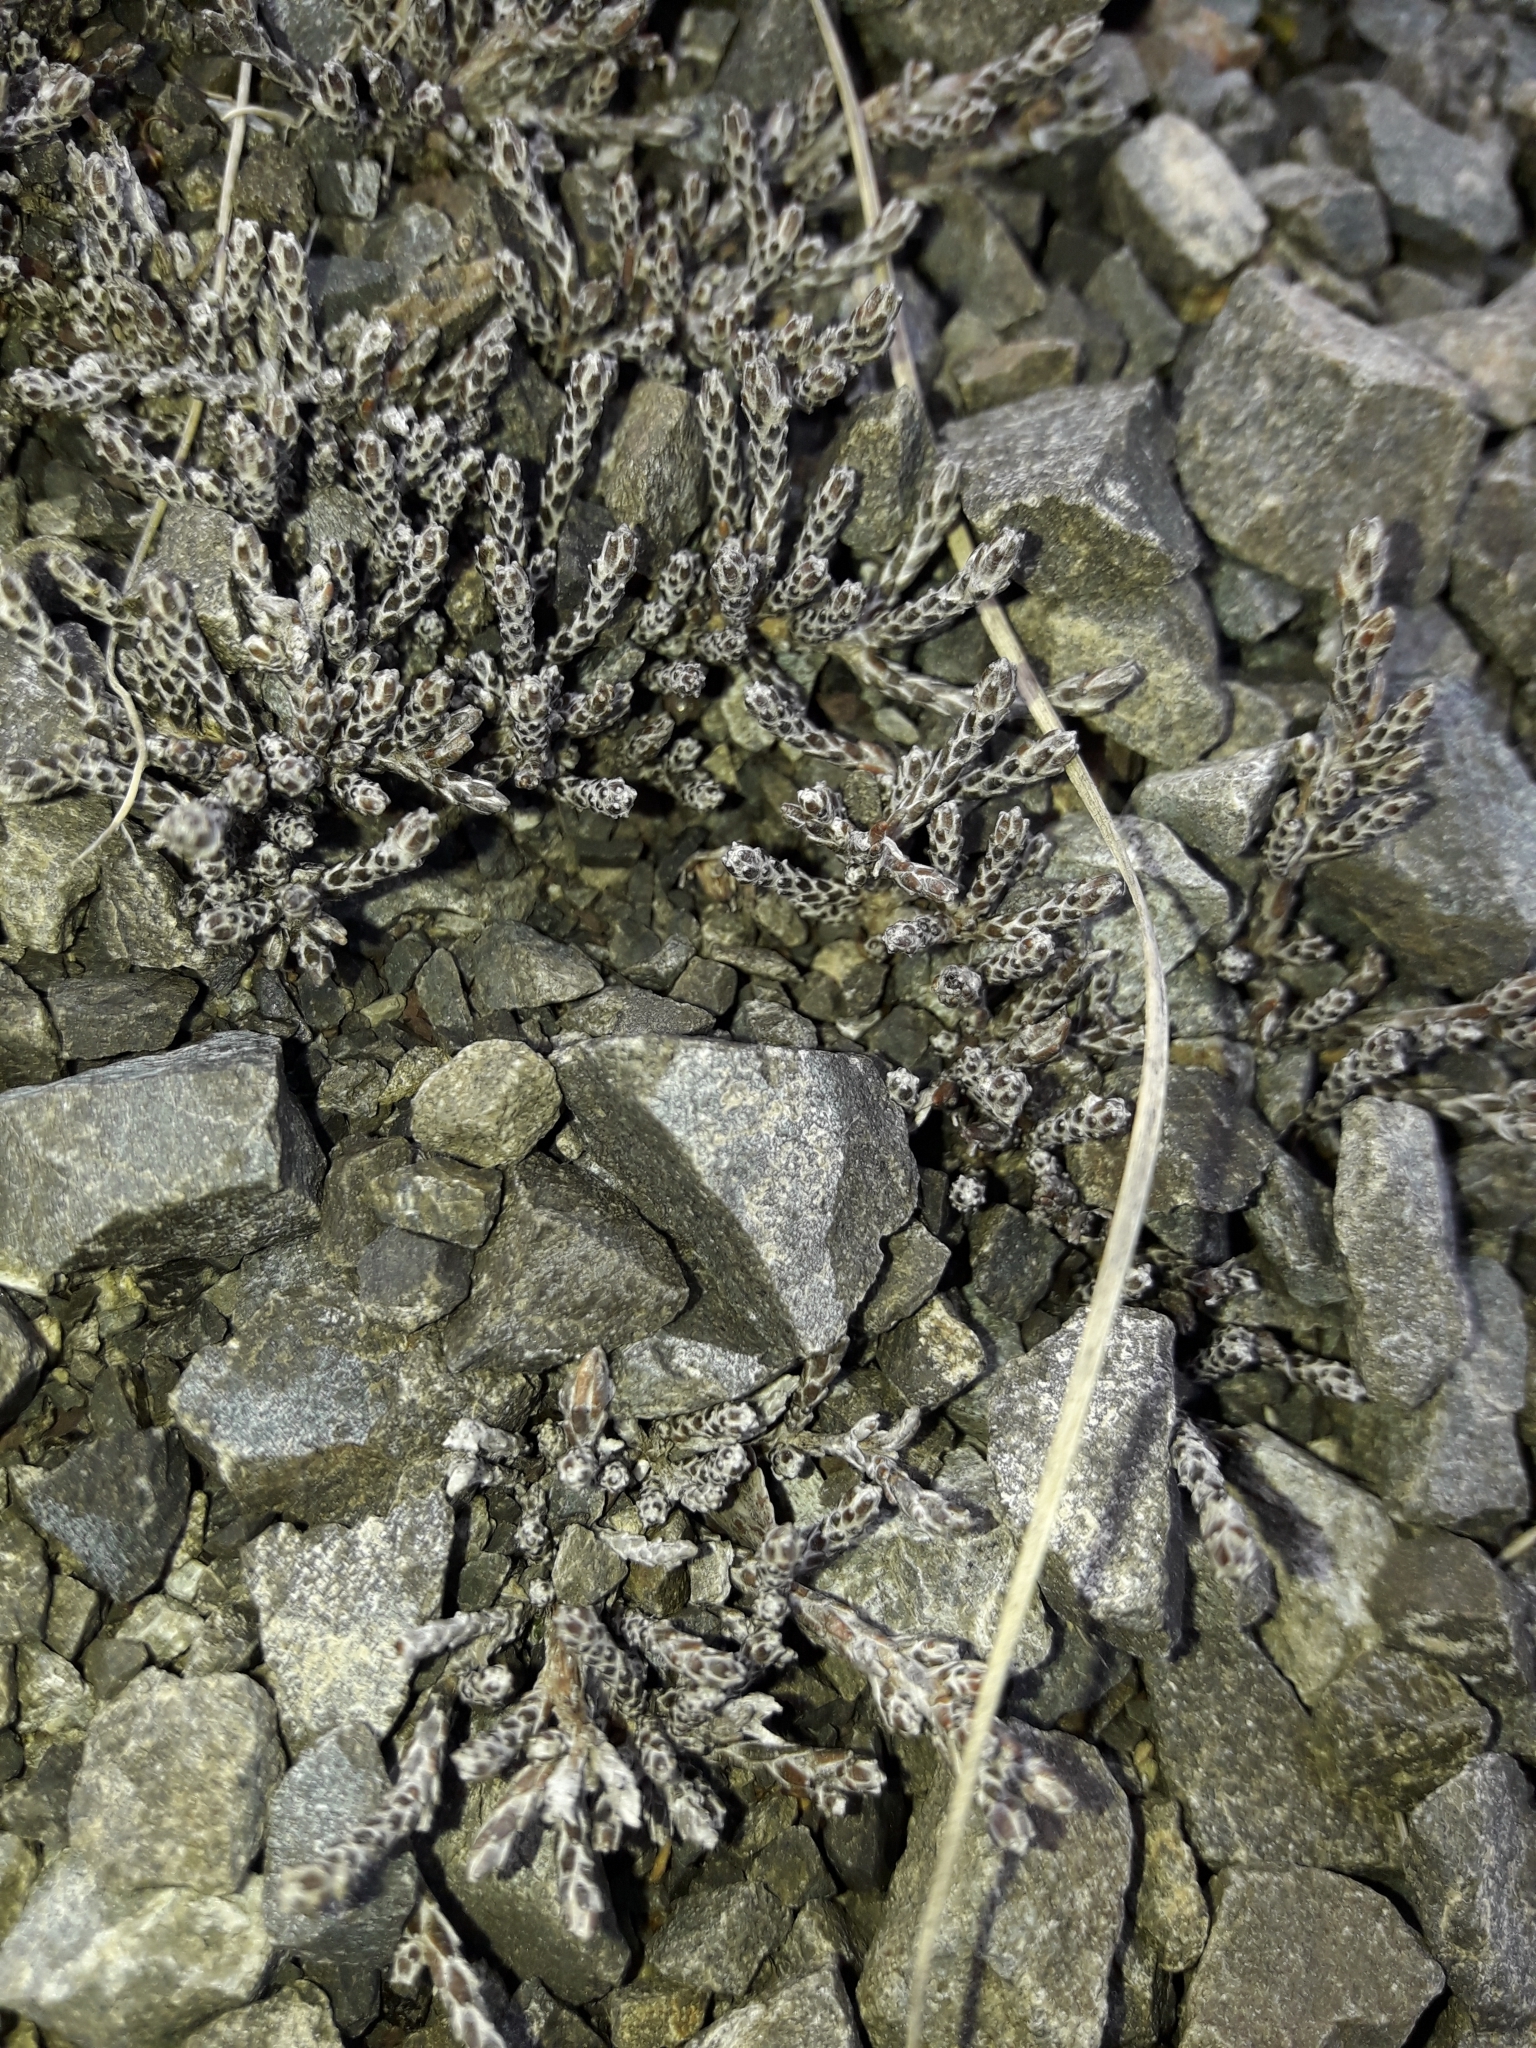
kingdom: Plantae
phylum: Tracheophyta
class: Magnoliopsida
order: Asterales
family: Asteraceae
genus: Ozothamnus
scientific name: Ozothamnus depressus
